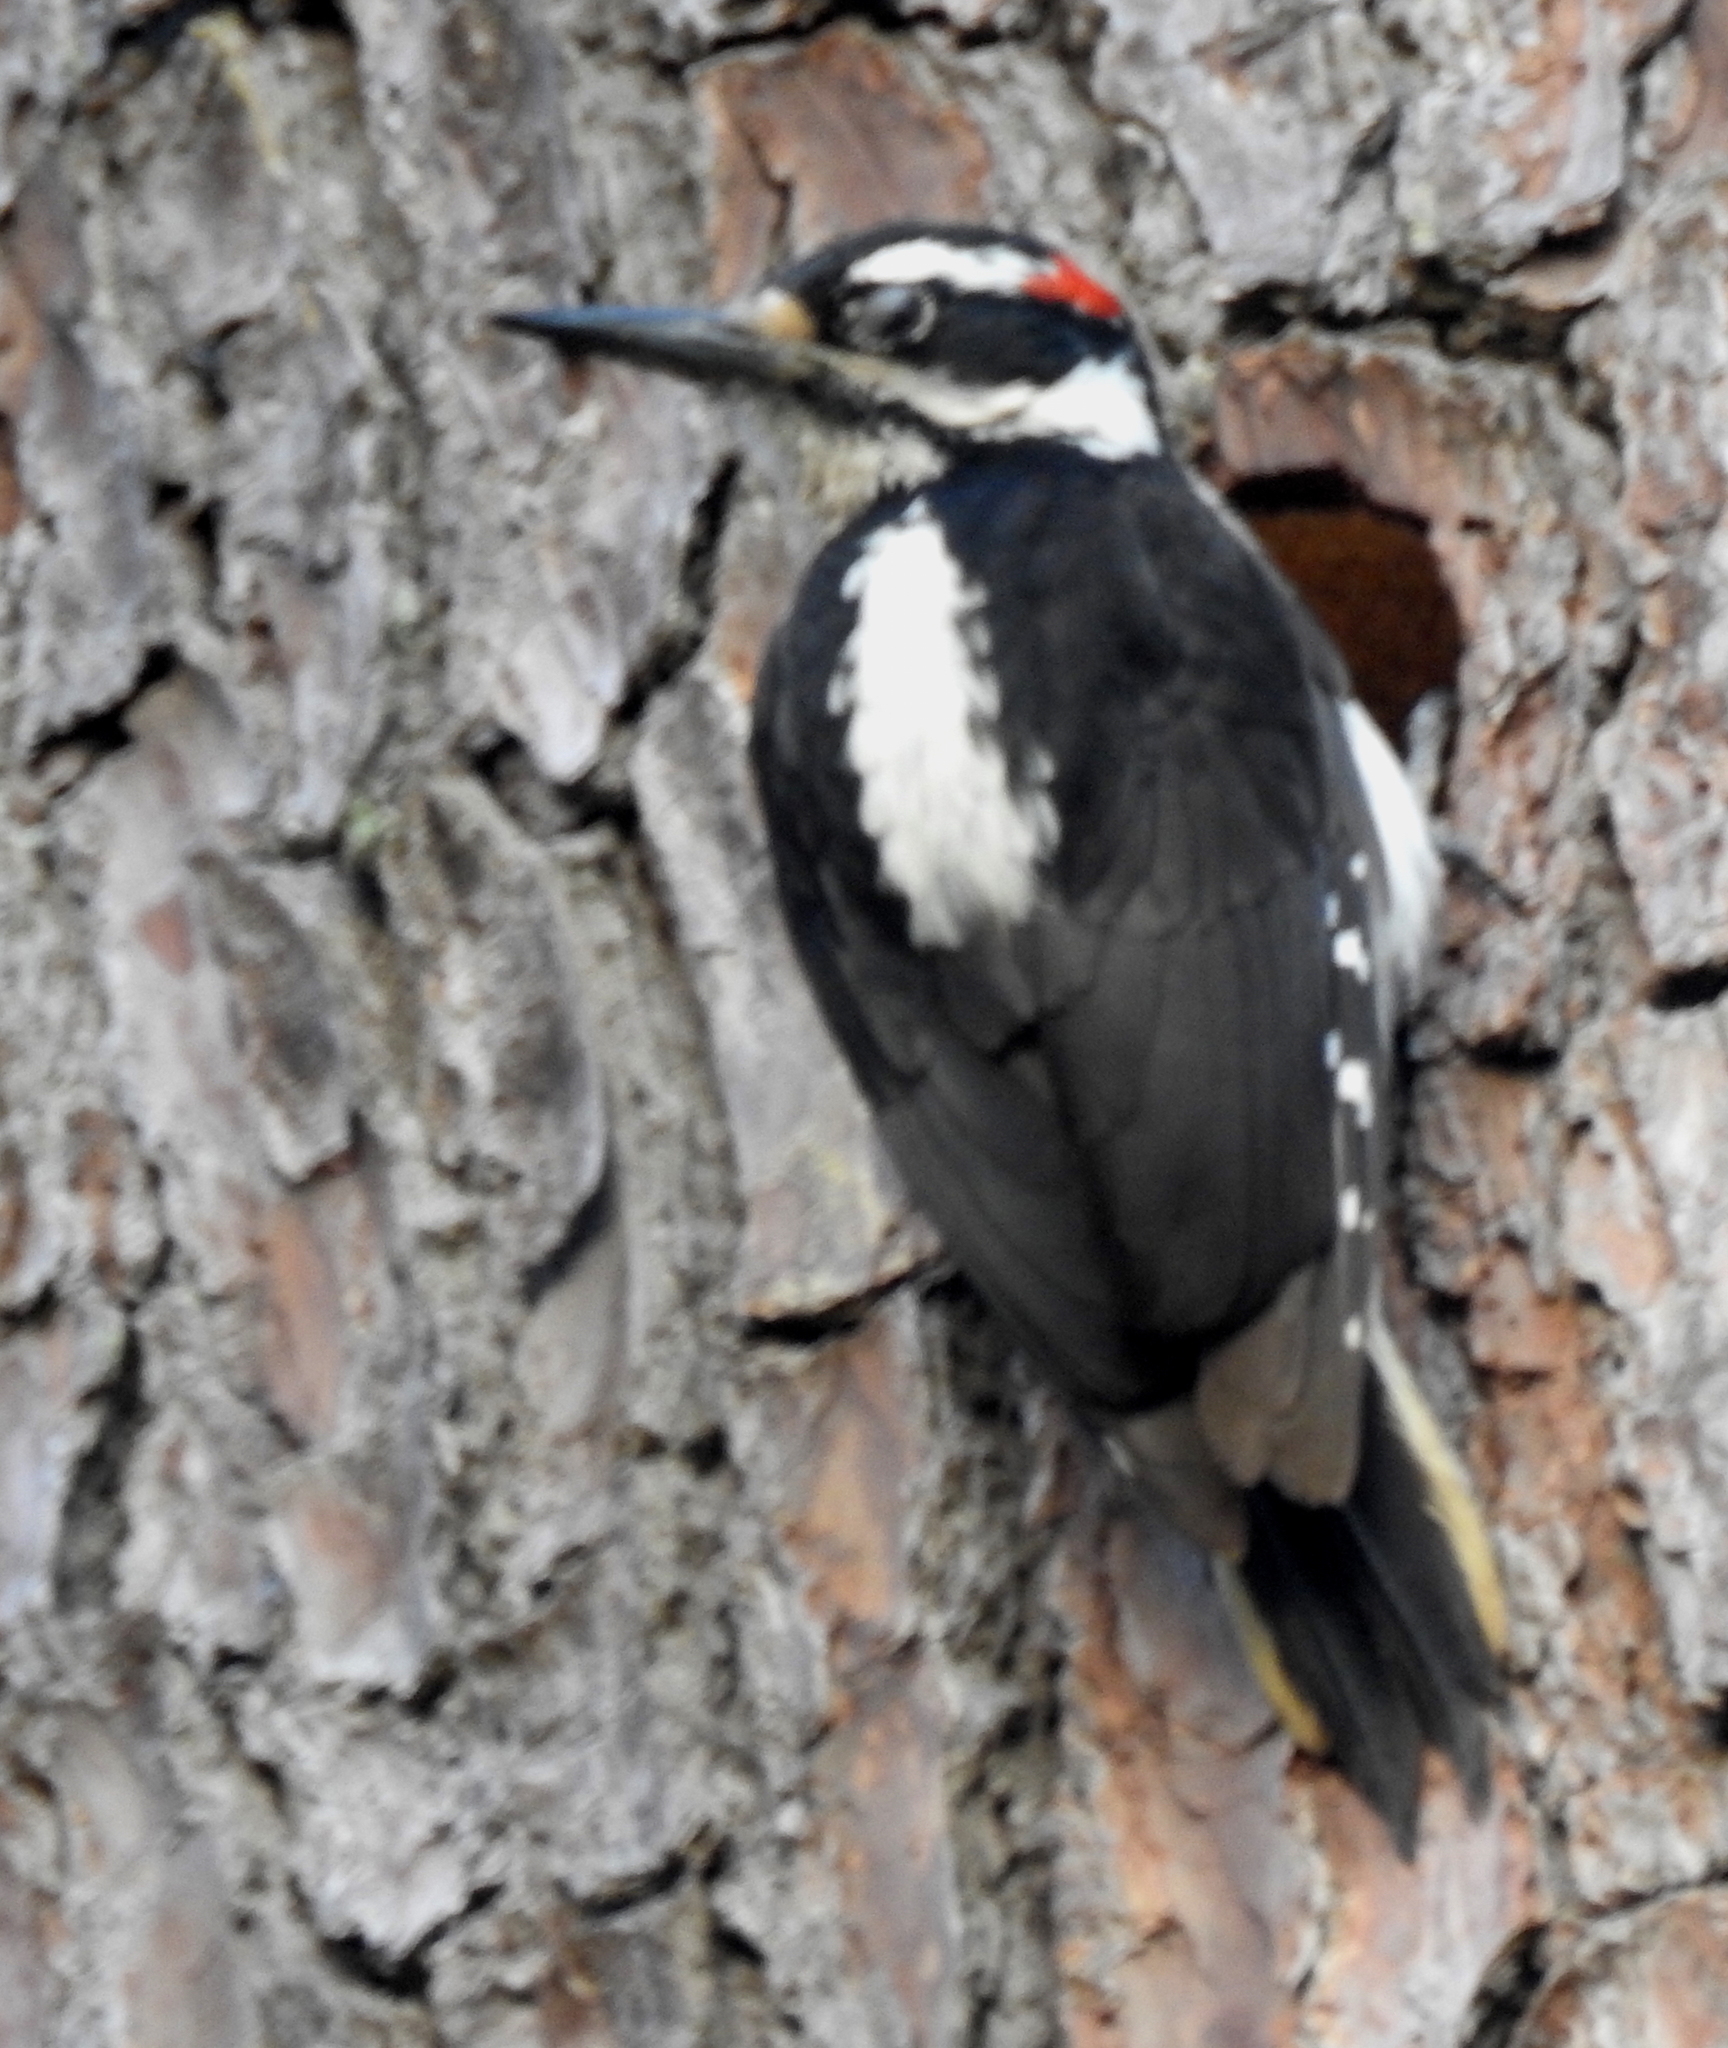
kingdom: Animalia
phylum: Chordata
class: Aves
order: Piciformes
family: Picidae
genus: Leuconotopicus
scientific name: Leuconotopicus villosus
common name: Hairy woodpecker
